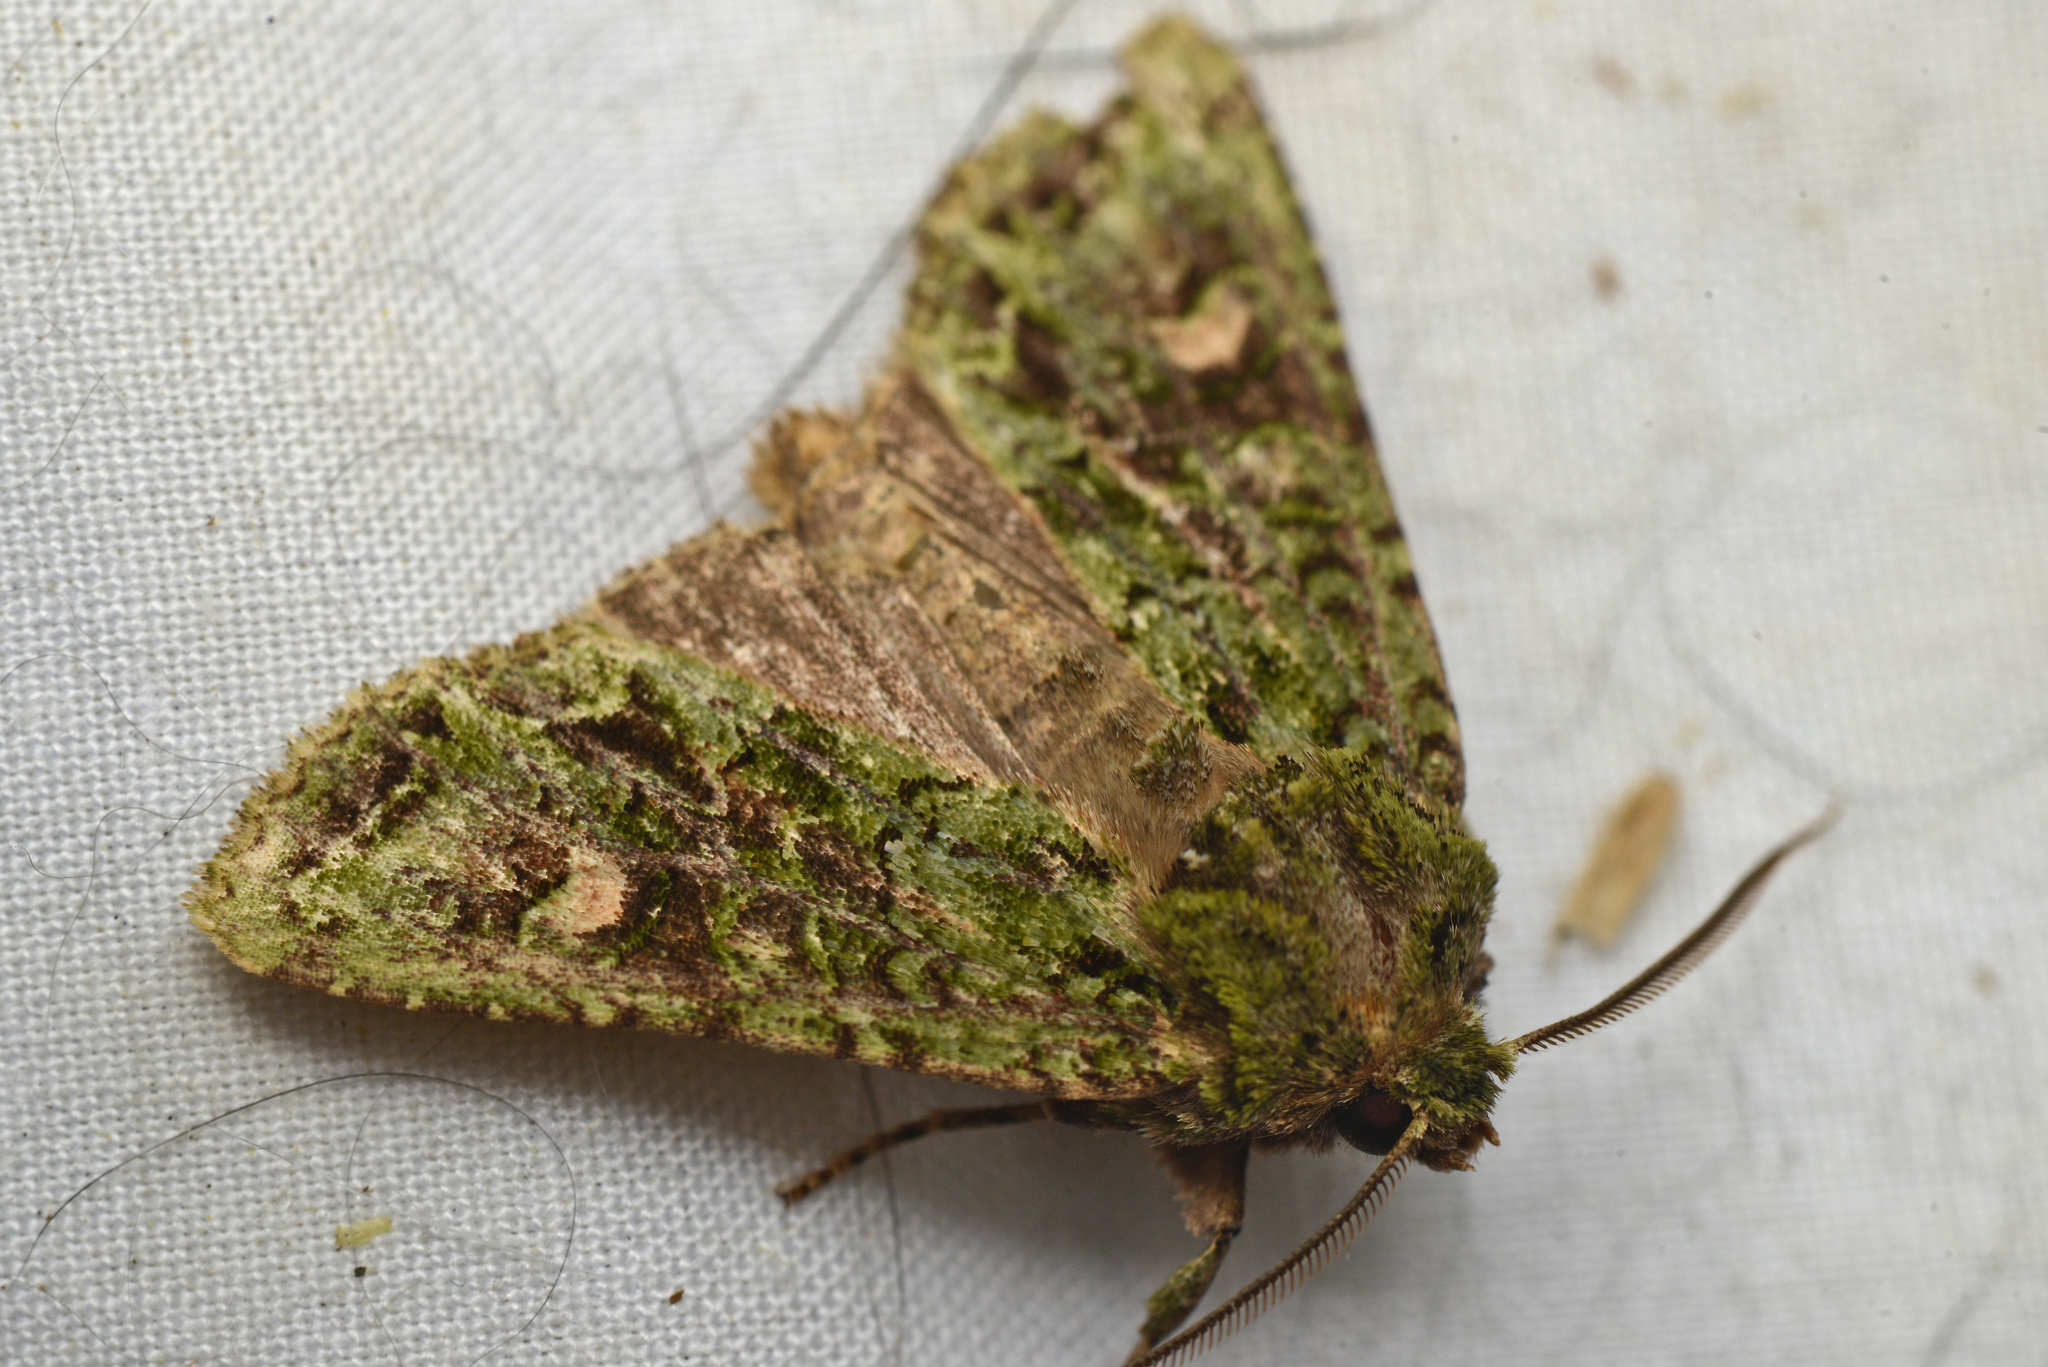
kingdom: Animalia
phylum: Arthropoda
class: Insecta
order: Lepidoptera
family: Noctuidae
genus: Ichneutica
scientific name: Ichneutica
